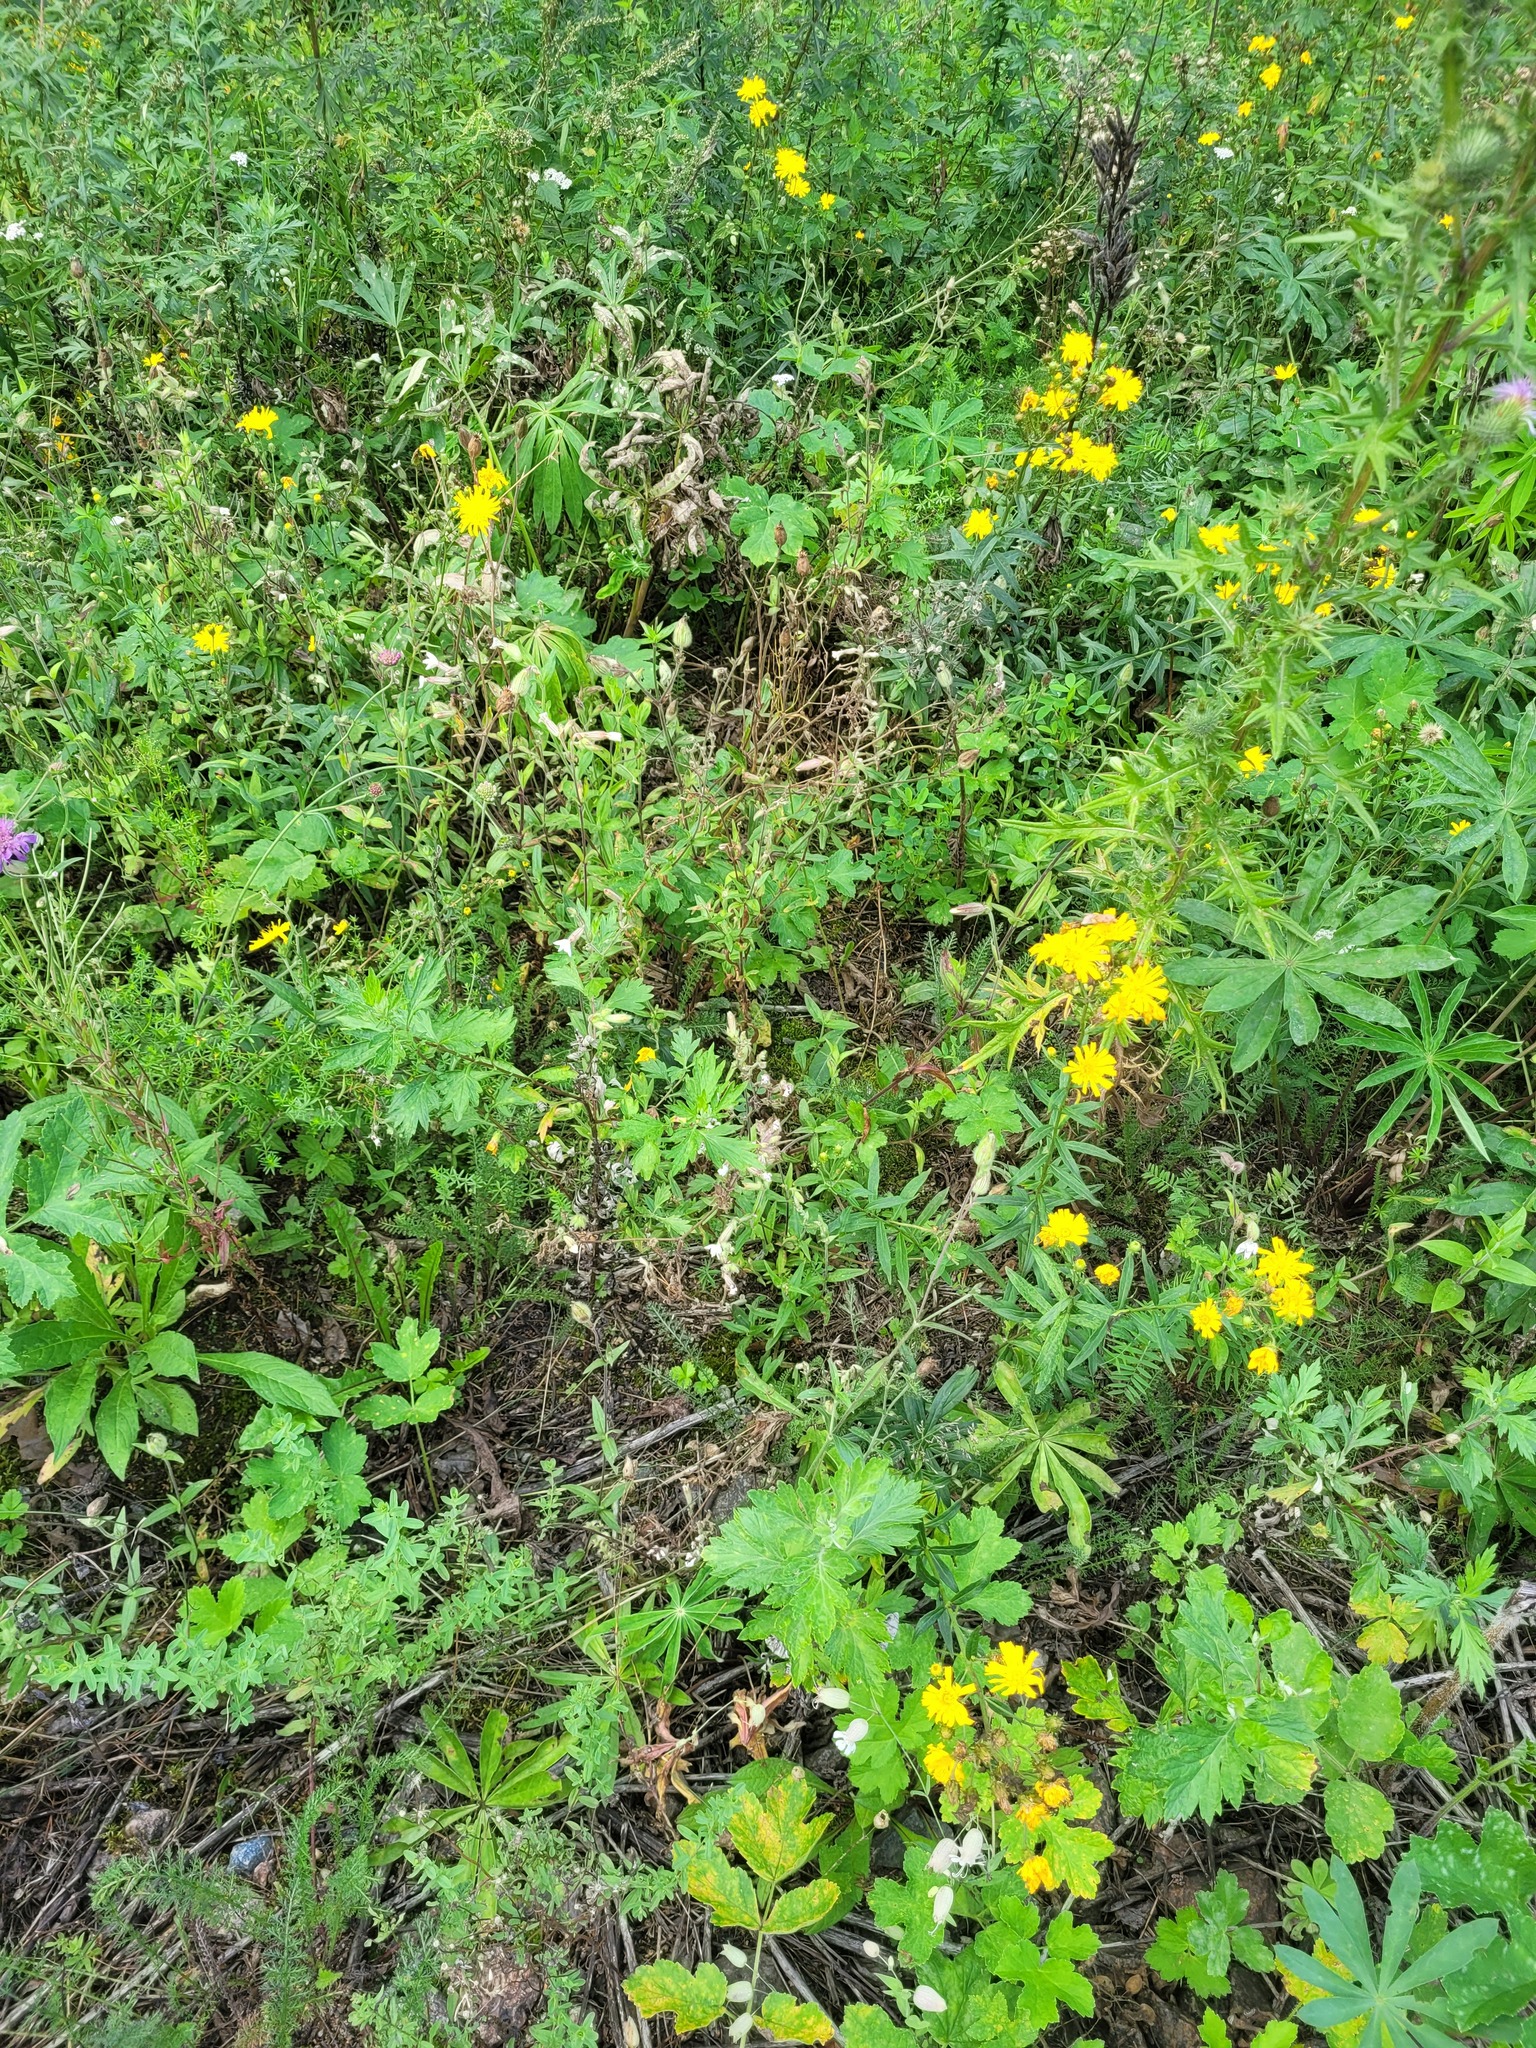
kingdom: Plantae
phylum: Tracheophyta
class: Magnoliopsida
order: Caryophyllales
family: Caryophyllaceae
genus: Silene
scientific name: Silene latifolia
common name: White campion
